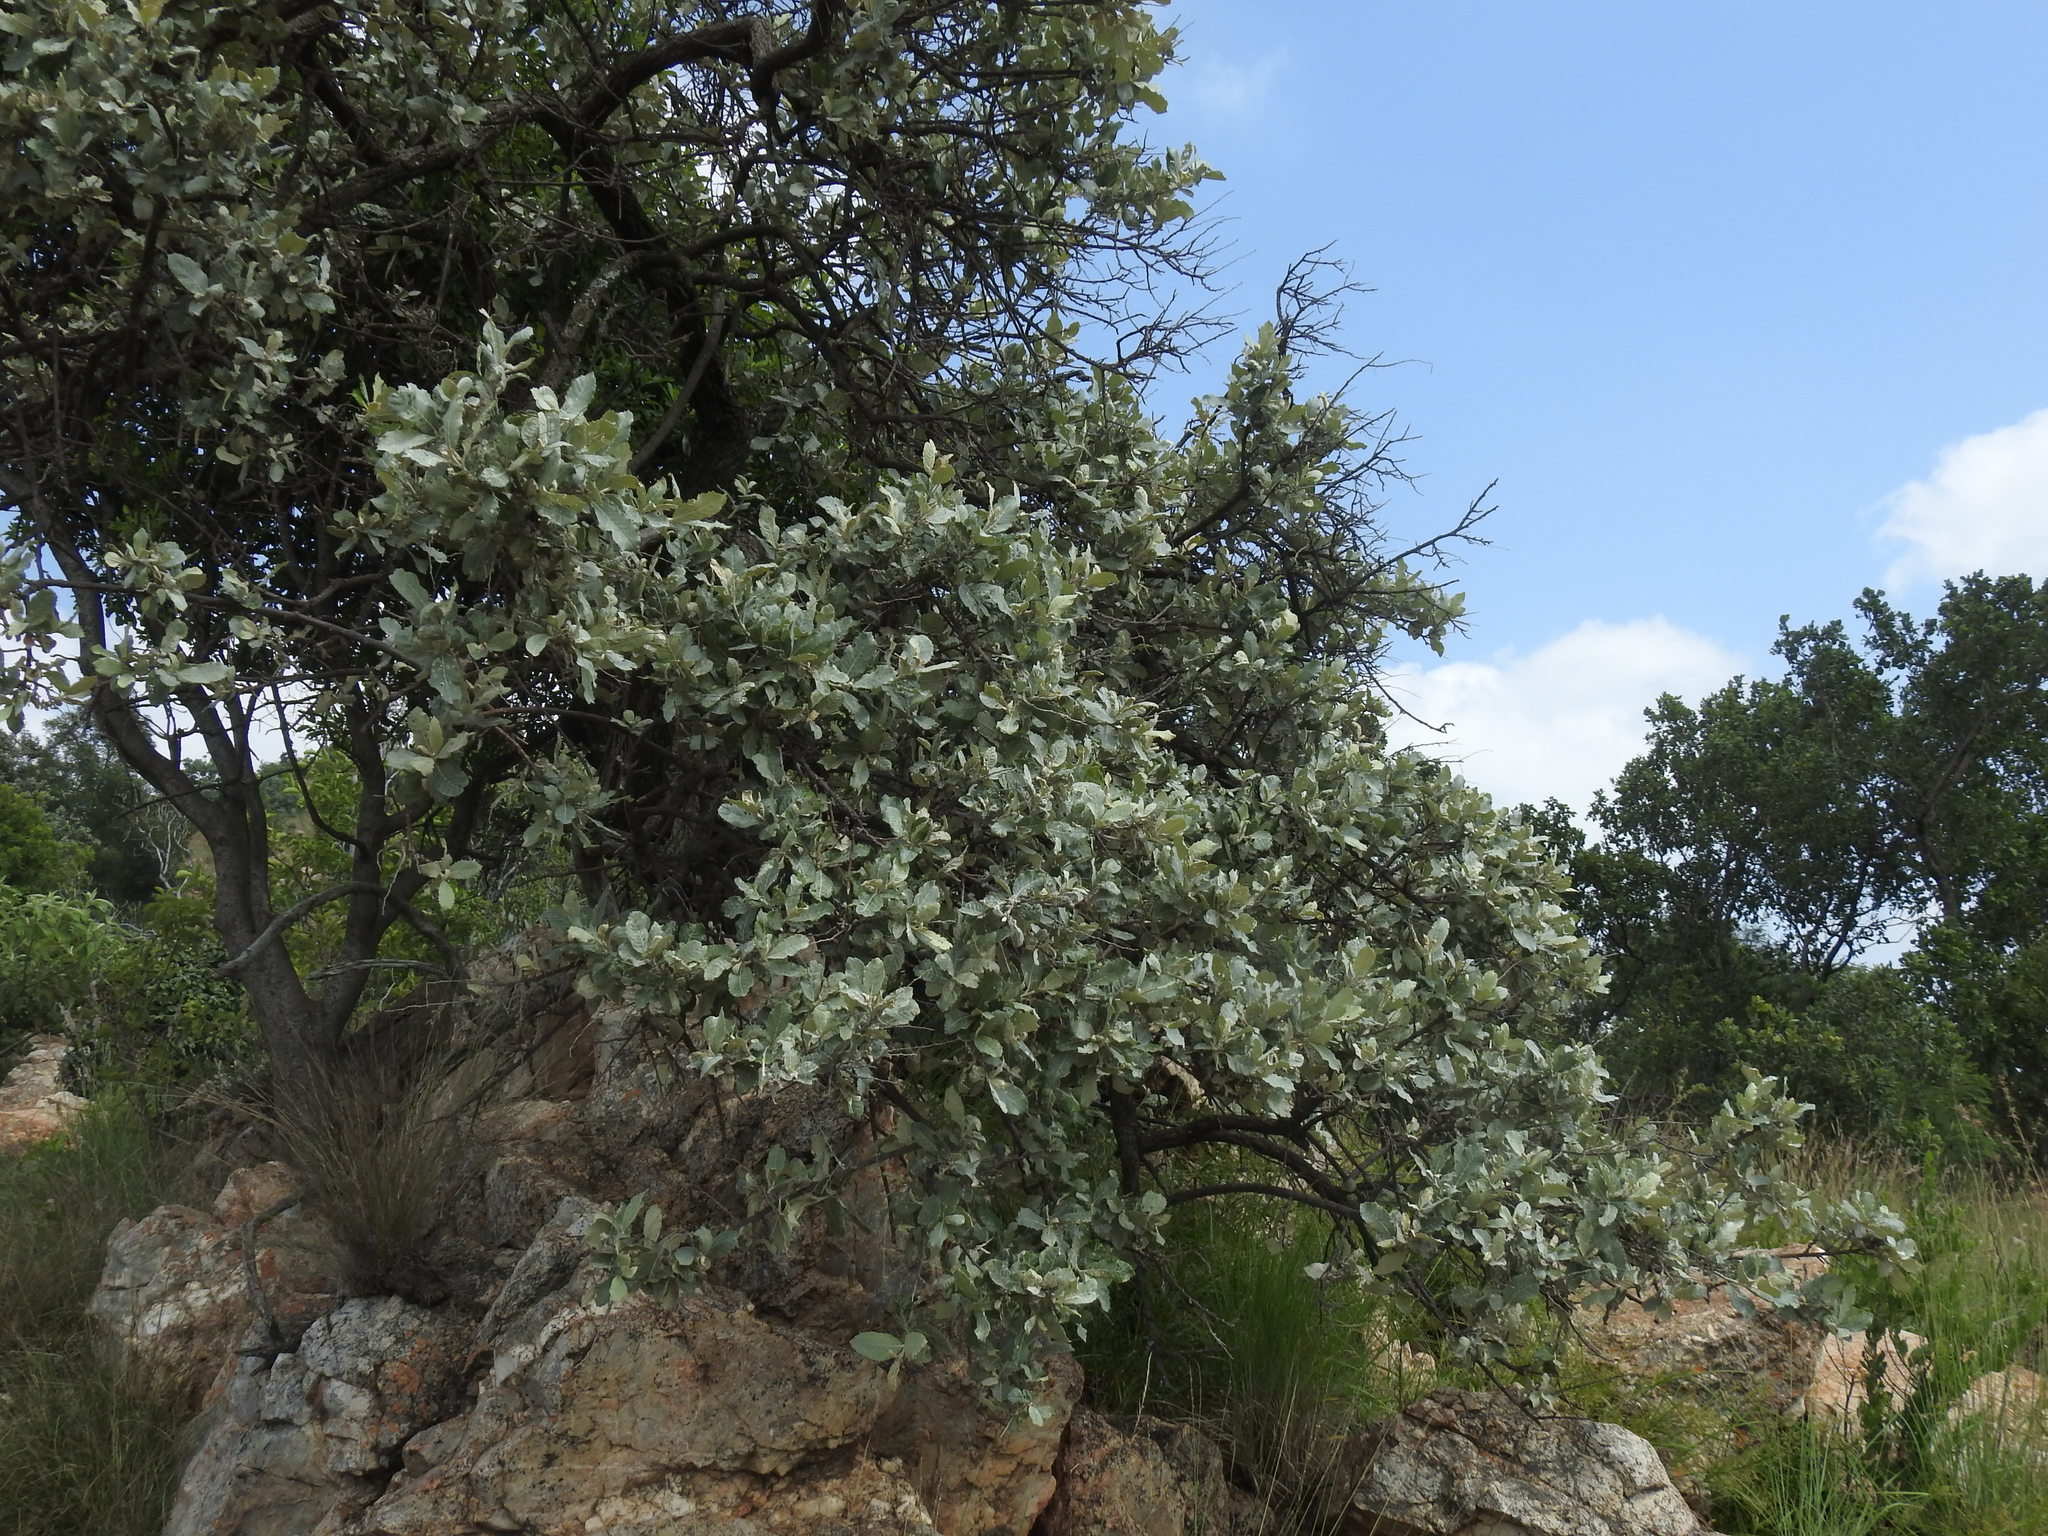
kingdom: Plantae
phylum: Tracheophyta
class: Magnoliopsida
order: Asterales
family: Asteraceae
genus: Brachylaena
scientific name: Brachylaena discolor
